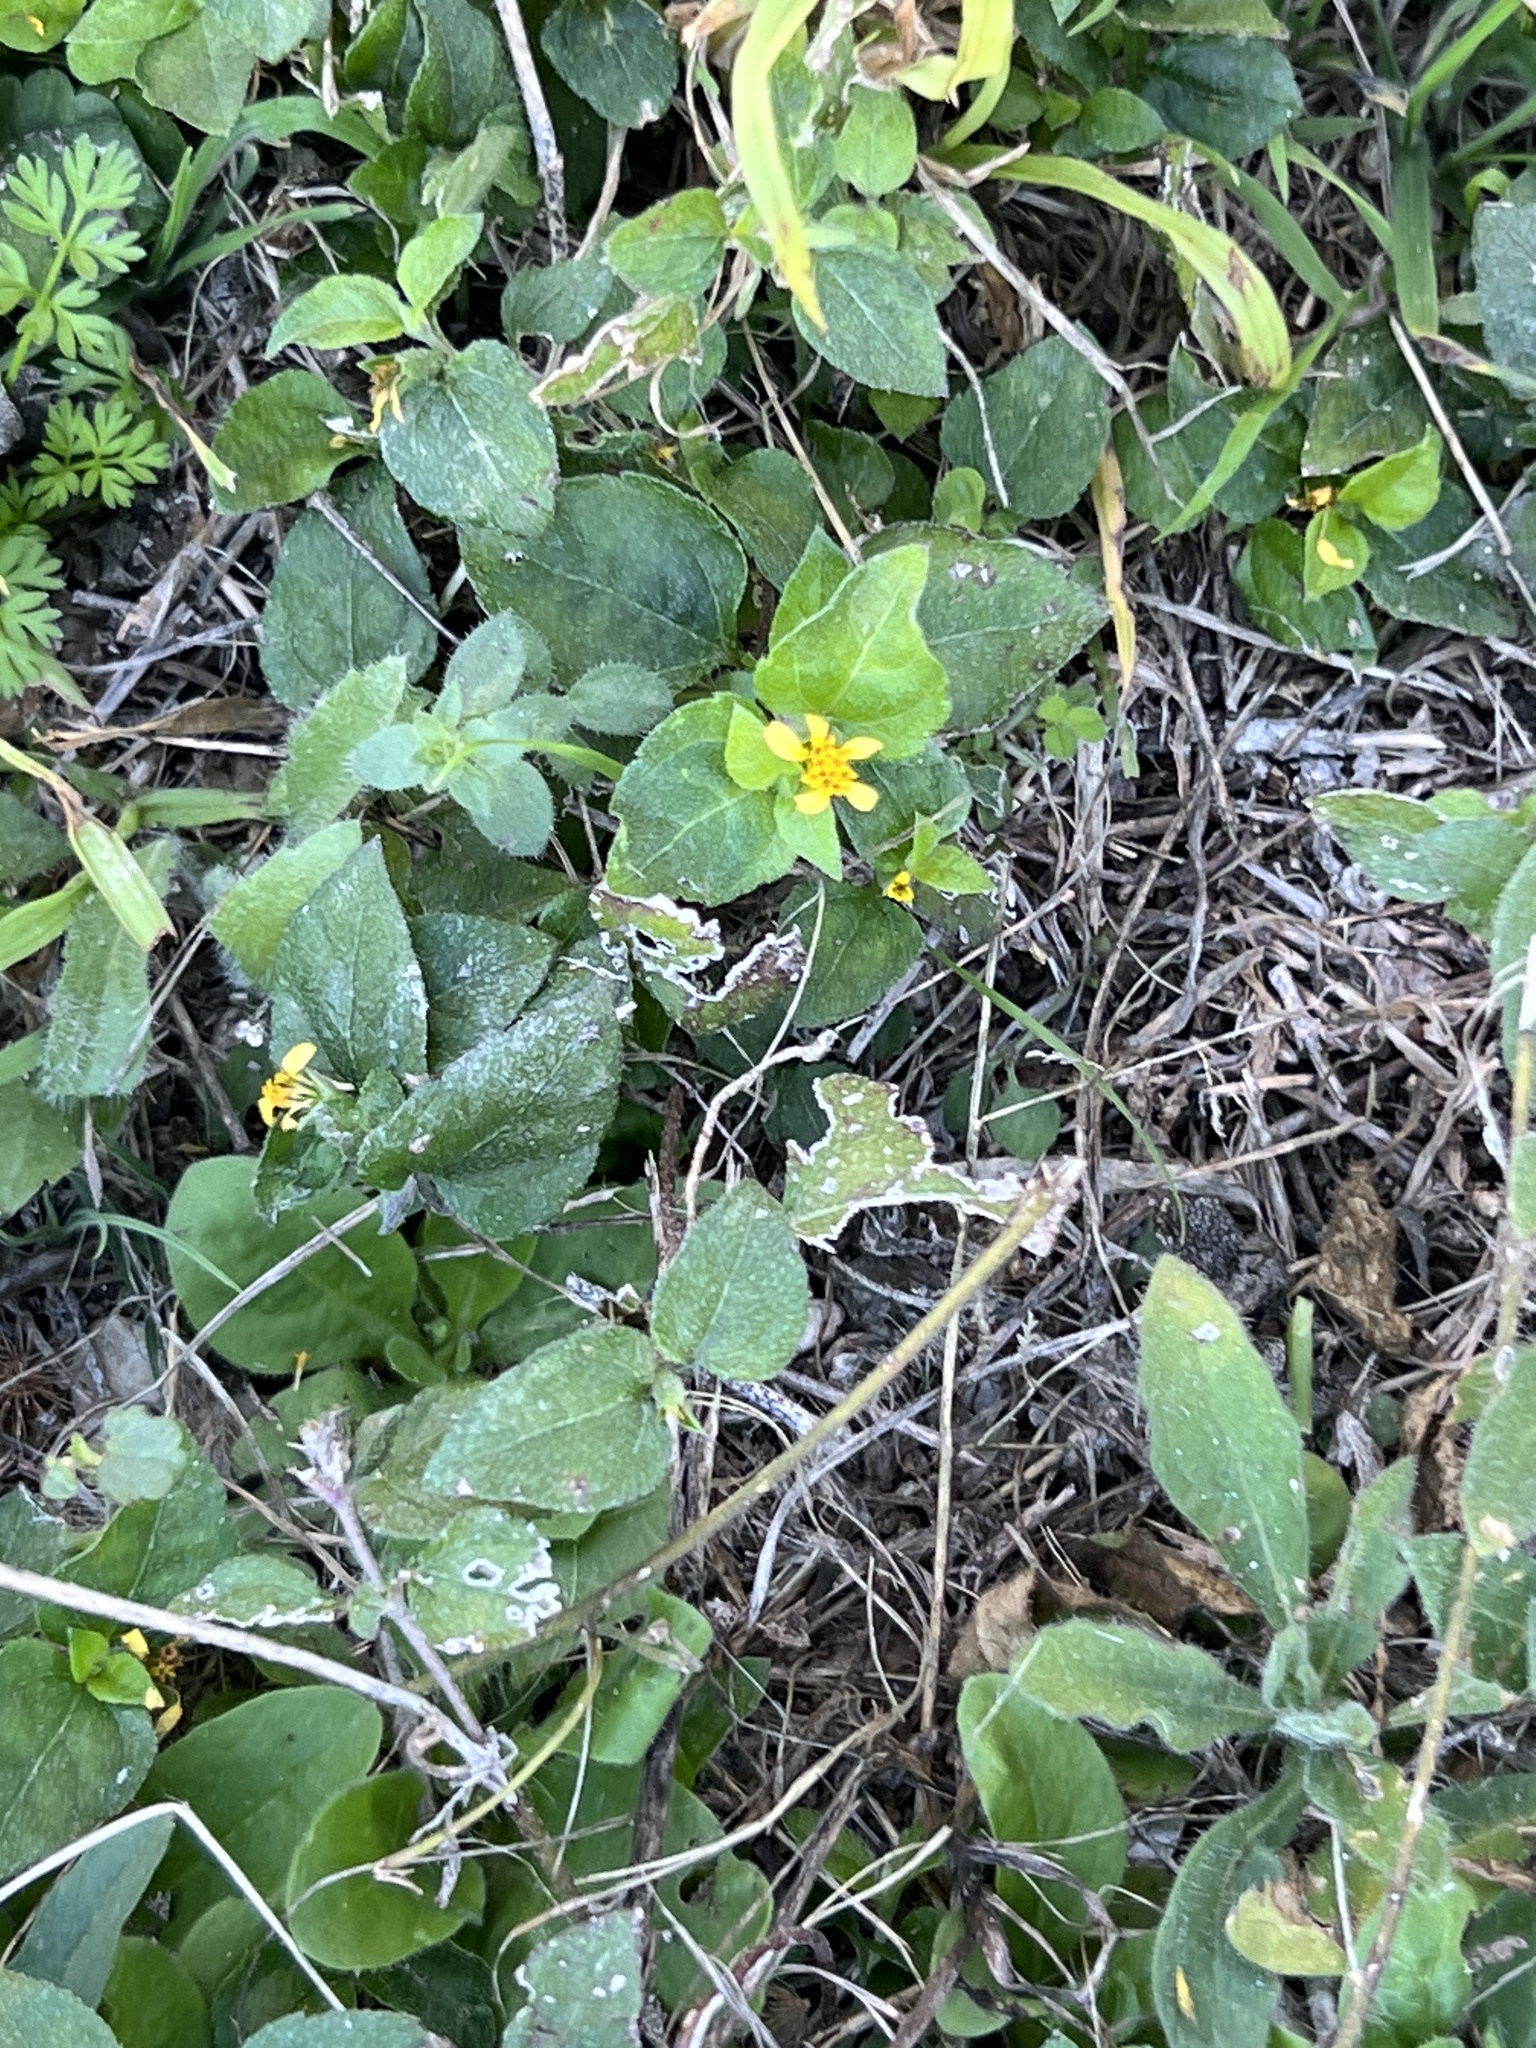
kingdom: Plantae
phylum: Tracheophyta
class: Magnoliopsida
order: Asterales
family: Asteraceae
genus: Calyptocarpus
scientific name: Calyptocarpus vialis
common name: Straggler daisy
